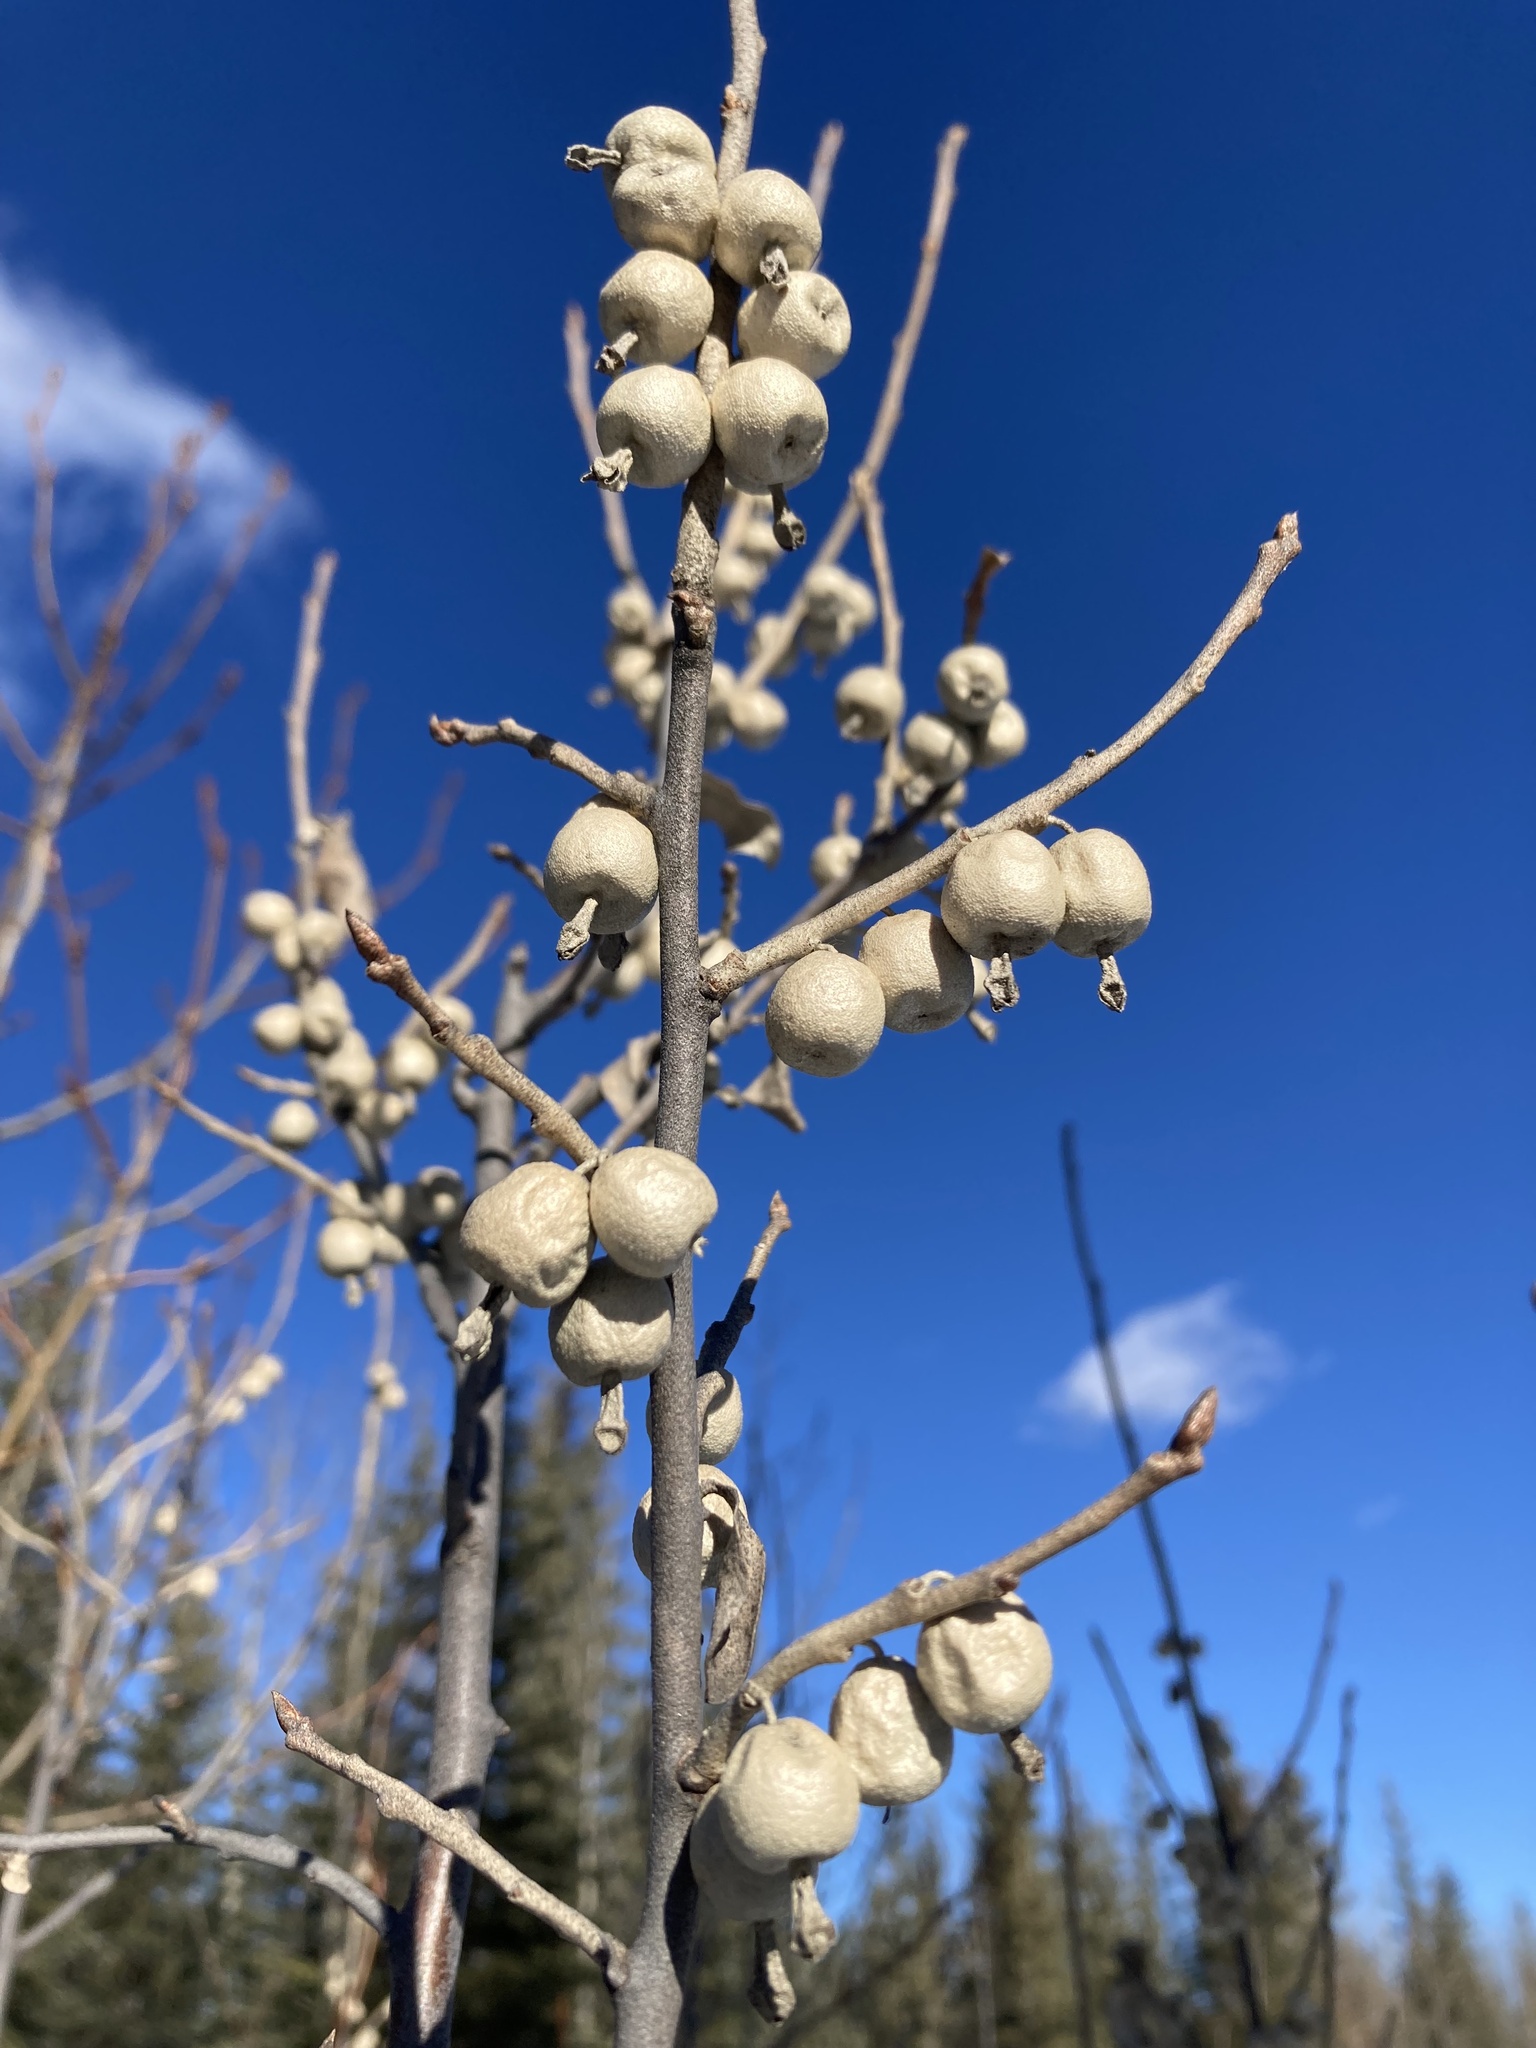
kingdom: Plantae
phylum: Tracheophyta
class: Magnoliopsida
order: Rosales
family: Elaeagnaceae
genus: Elaeagnus
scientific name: Elaeagnus commutata
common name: Silverberry
